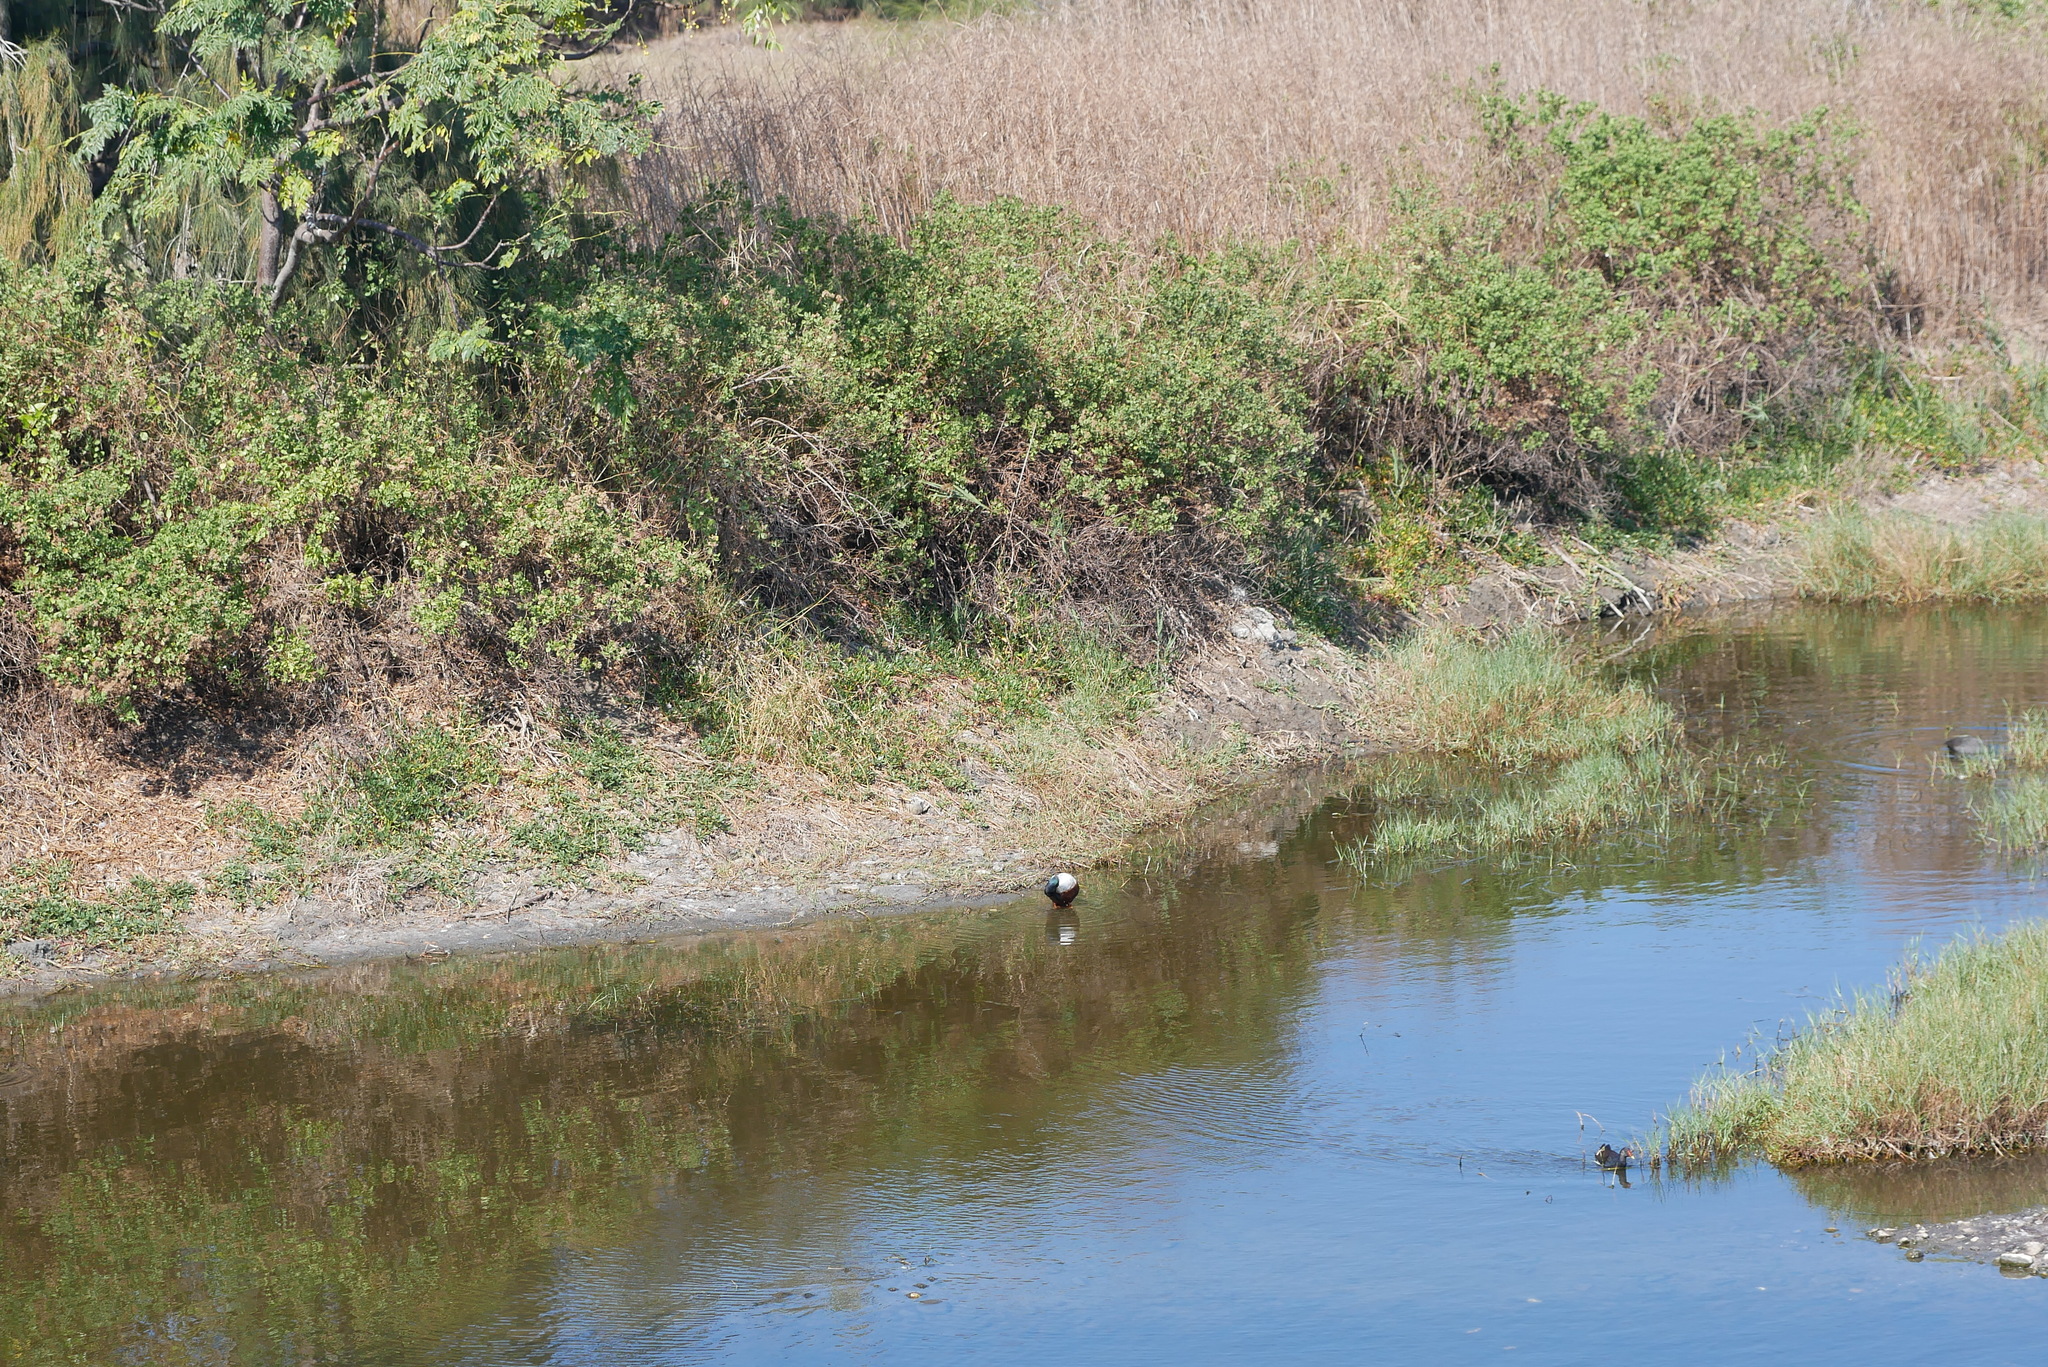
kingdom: Animalia
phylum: Chordata
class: Aves
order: Anseriformes
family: Anatidae
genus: Spatula
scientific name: Spatula clypeata
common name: Northern shoveler
